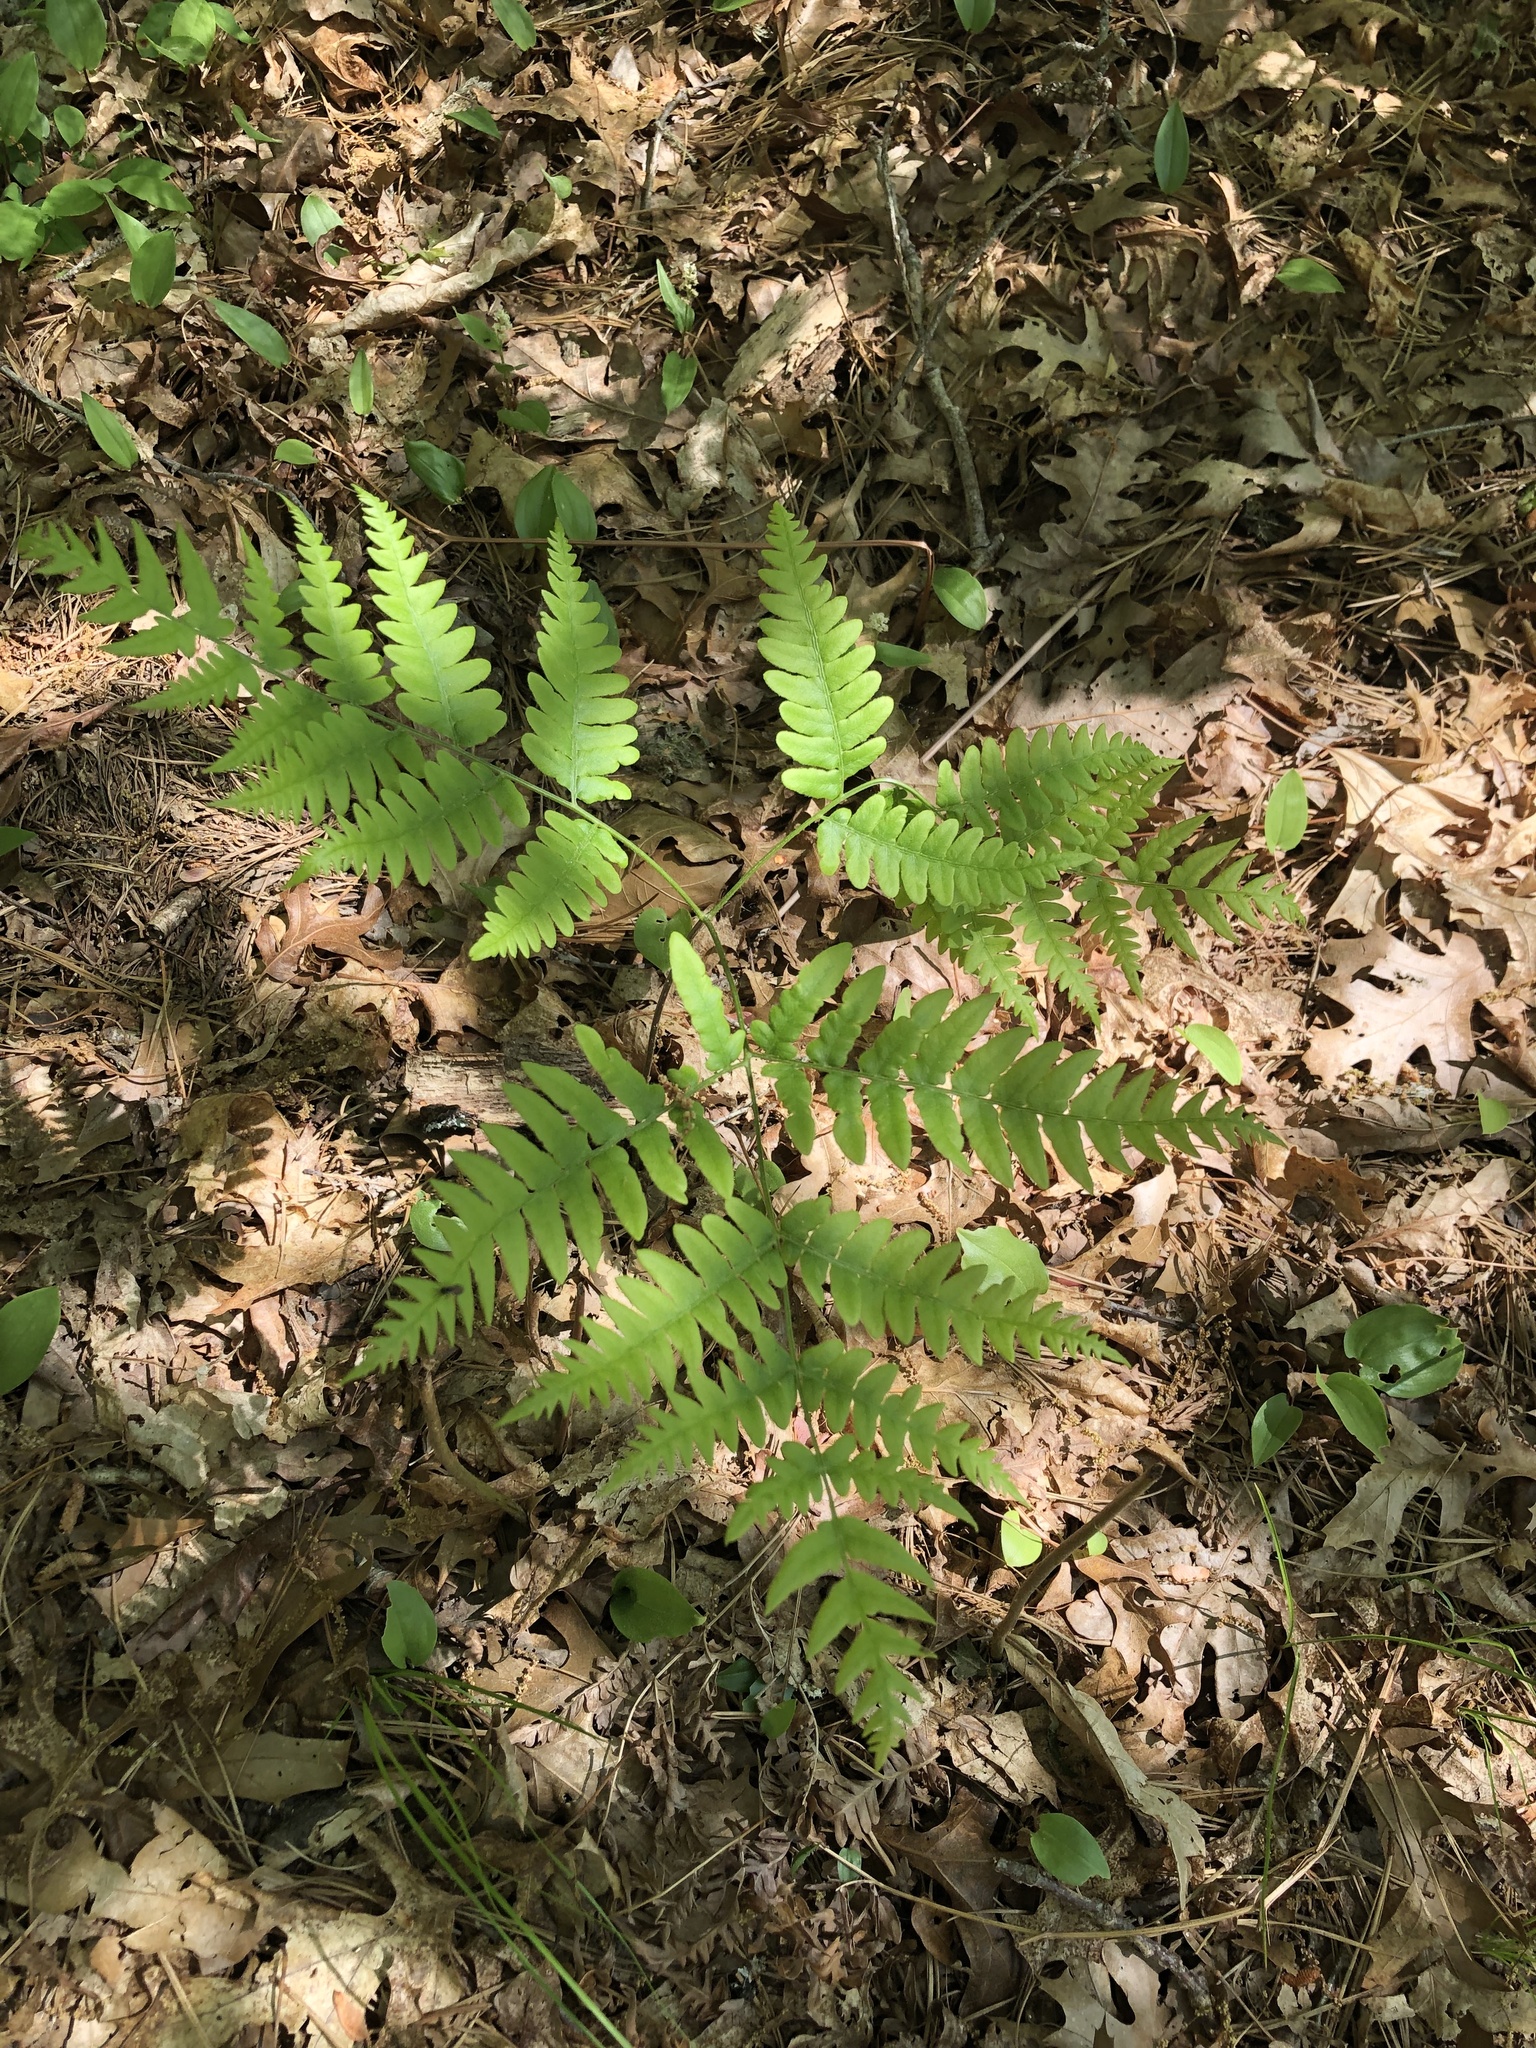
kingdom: Plantae
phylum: Tracheophyta
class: Polypodiopsida
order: Polypodiales
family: Dennstaedtiaceae
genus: Pteridium
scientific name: Pteridium aquilinum
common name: Bracken
